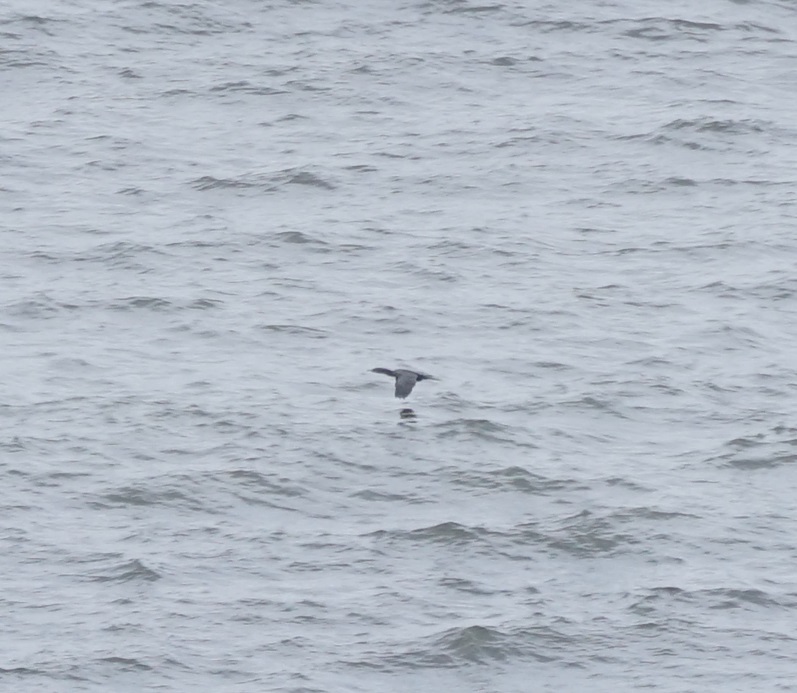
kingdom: Animalia
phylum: Chordata
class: Aves
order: Suliformes
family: Phalacrocoracidae
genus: Phalacrocorax
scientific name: Phalacrocorax brasilianus
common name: Neotropic cormorant
